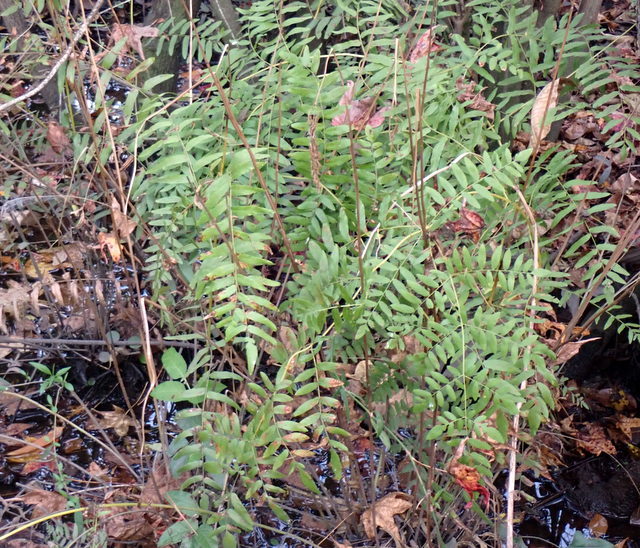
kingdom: Plantae
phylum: Tracheophyta
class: Polypodiopsida
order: Osmundales
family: Osmundaceae
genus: Osmunda
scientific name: Osmunda spectabilis
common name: American royal fern
